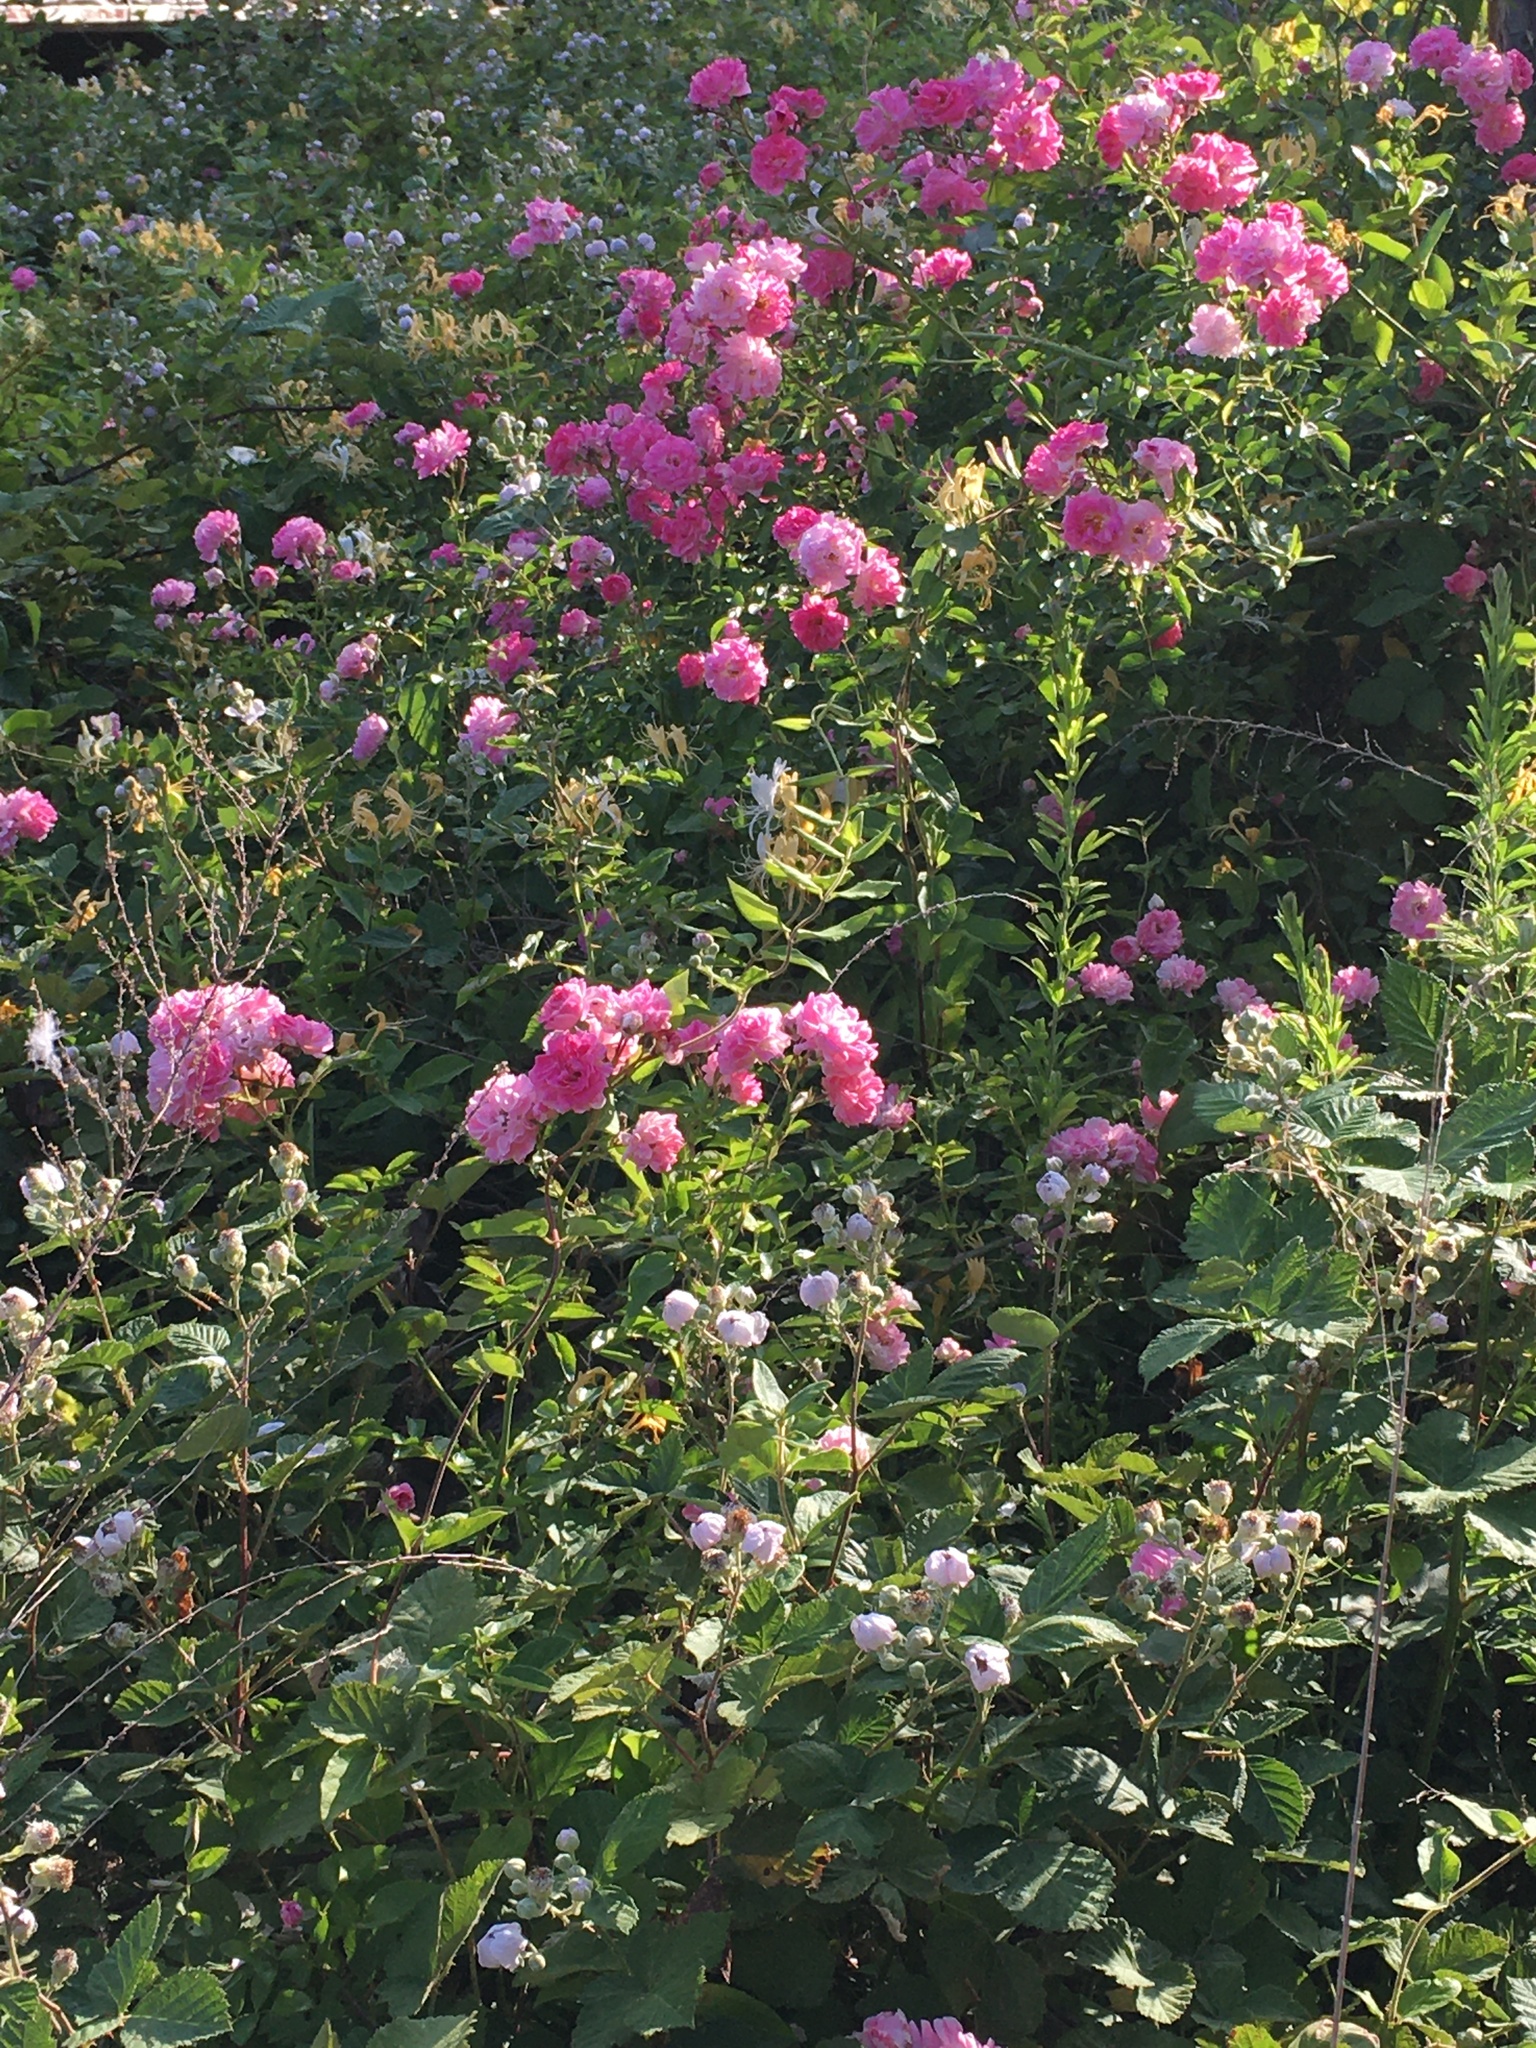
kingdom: Plantae
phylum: Tracheophyta
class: Magnoliopsida
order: Rosales
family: Rosaceae
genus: Rosa
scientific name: Rosa lucieae
